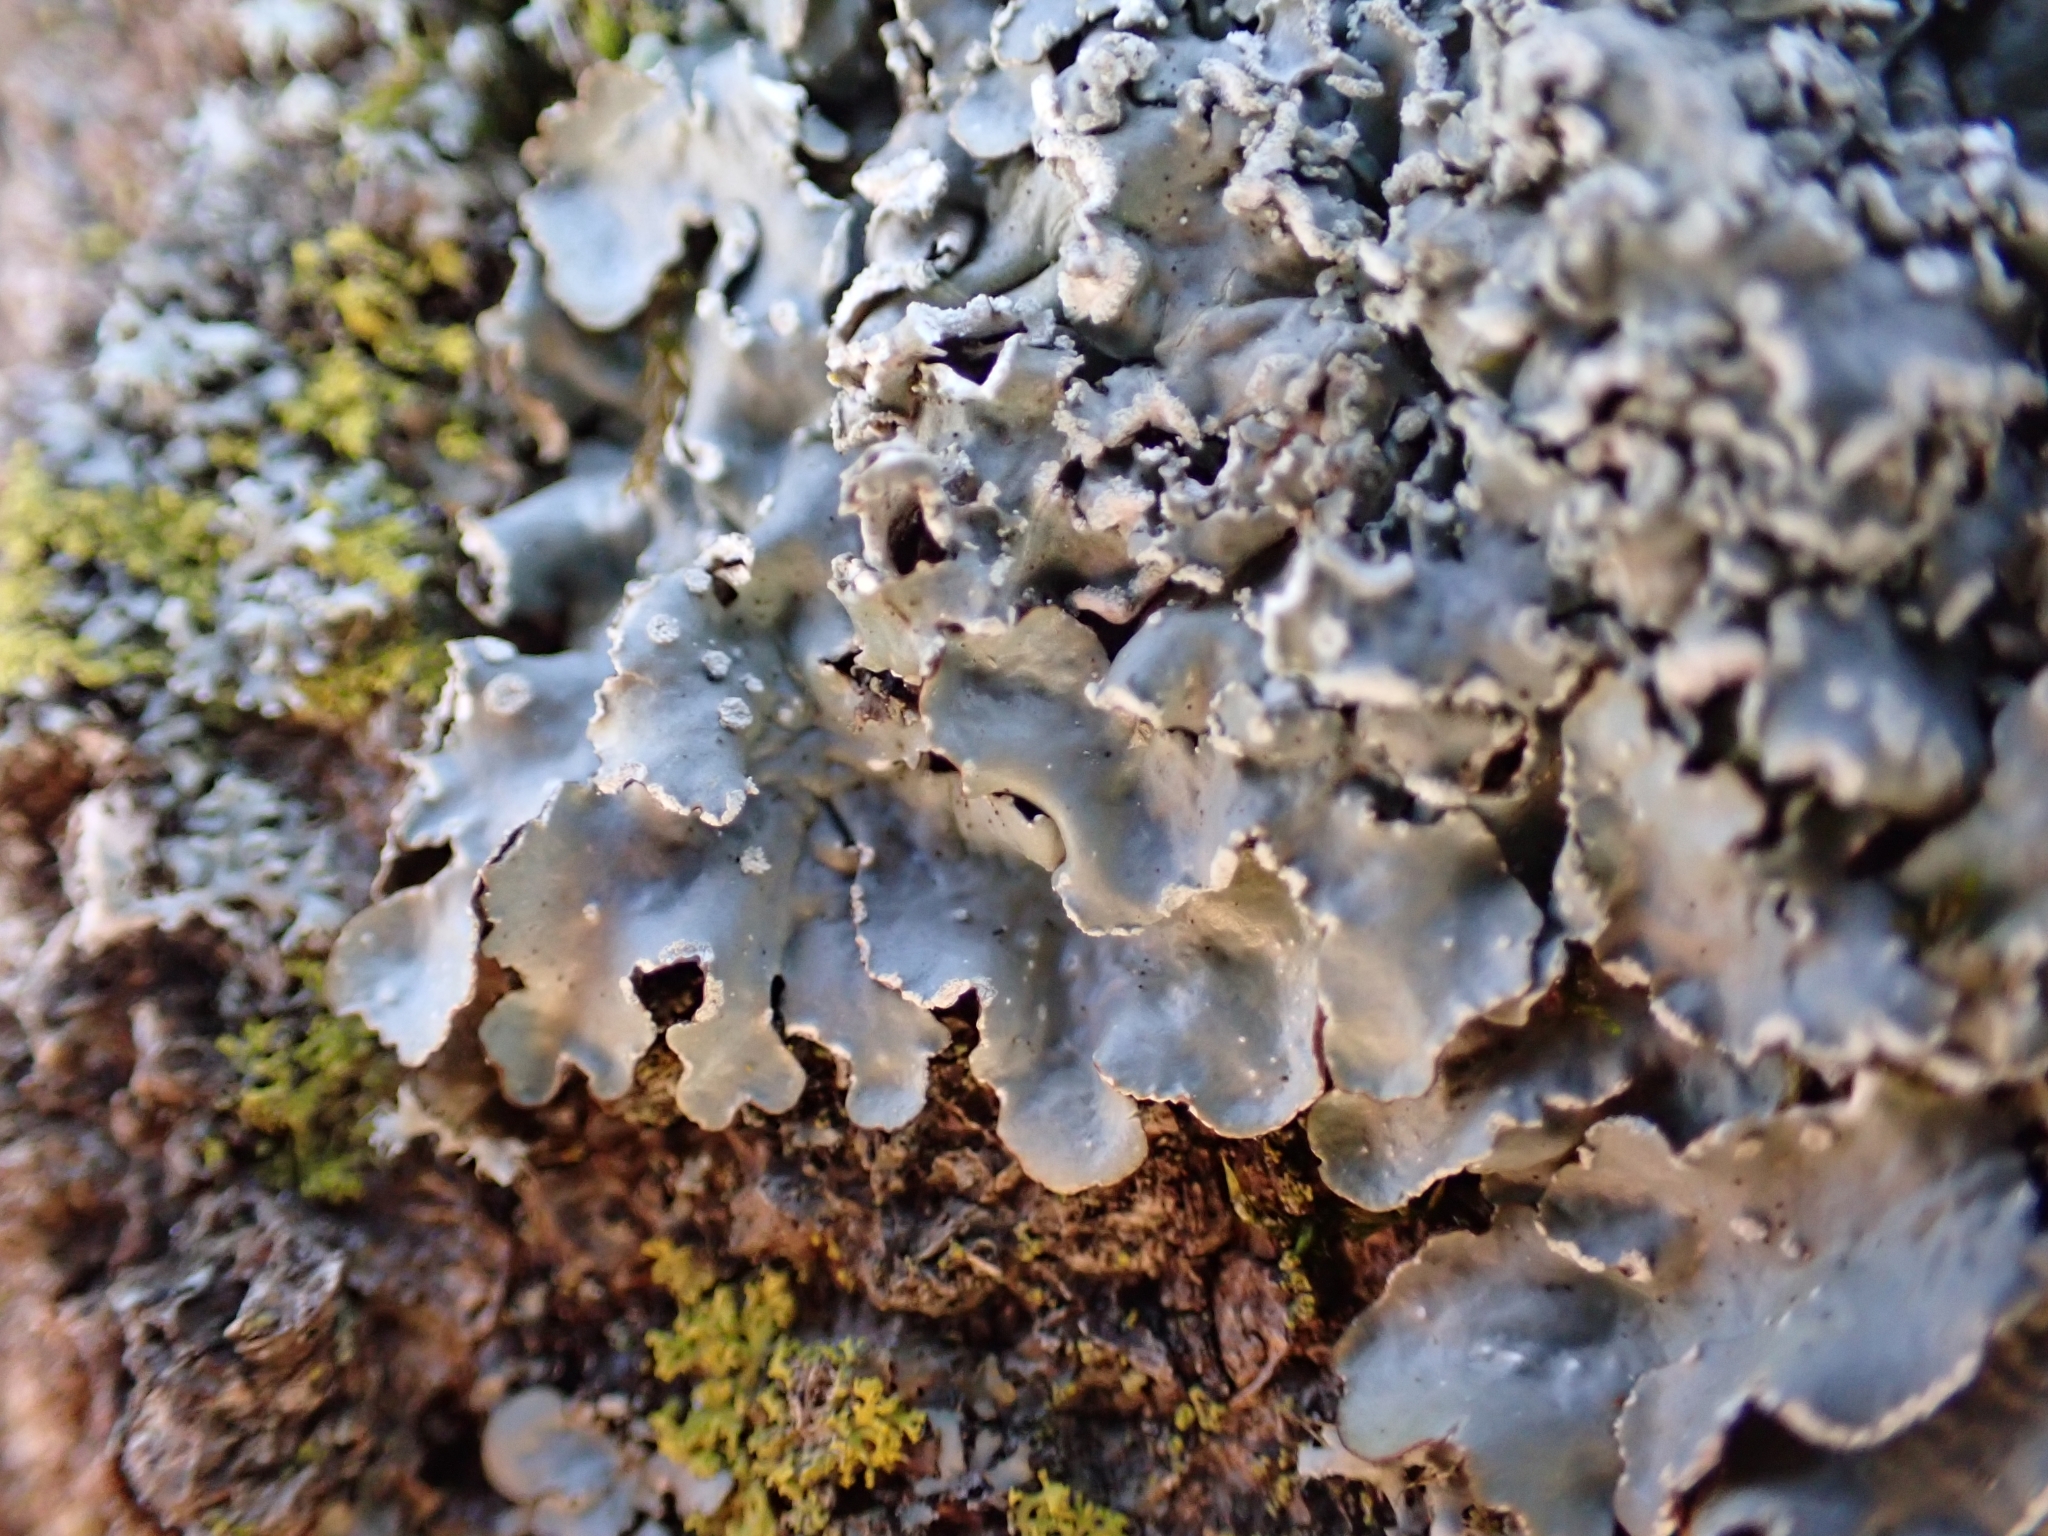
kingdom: Fungi
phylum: Ascomycota
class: Lecanoromycetes
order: Lecanorales
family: Parmeliaceae
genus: Punctelia
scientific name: Punctelia jeckeri
